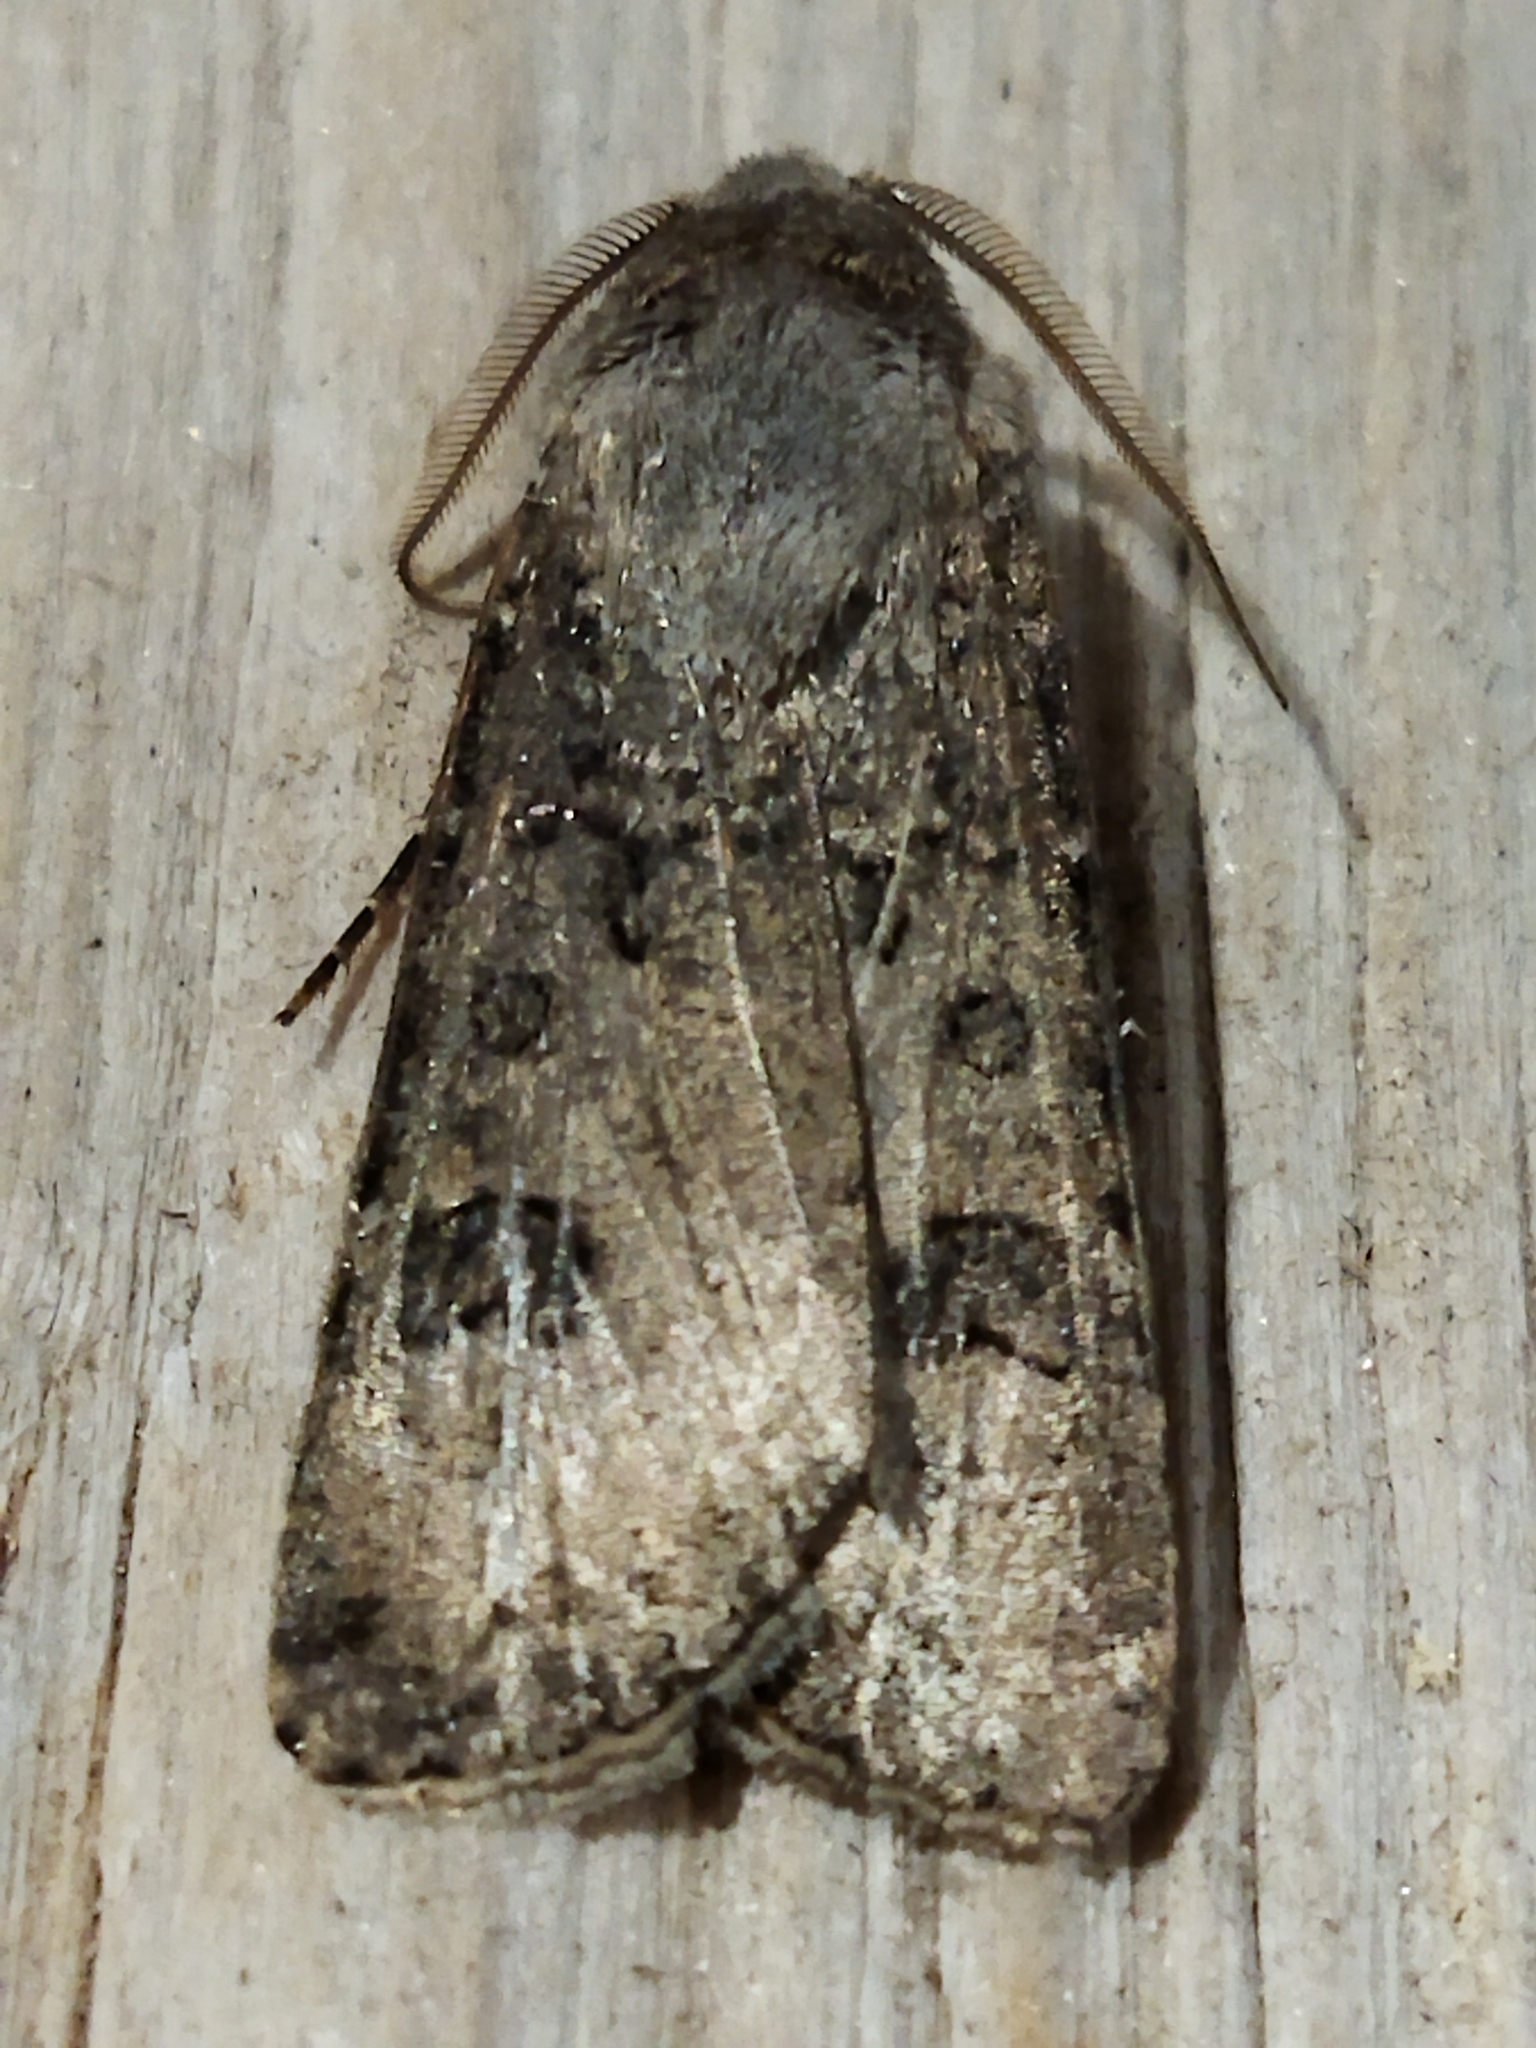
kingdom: Animalia
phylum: Arthropoda
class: Insecta
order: Lepidoptera
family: Noctuidae
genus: Agrotis
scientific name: Agrotis clavis
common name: Heart and club
